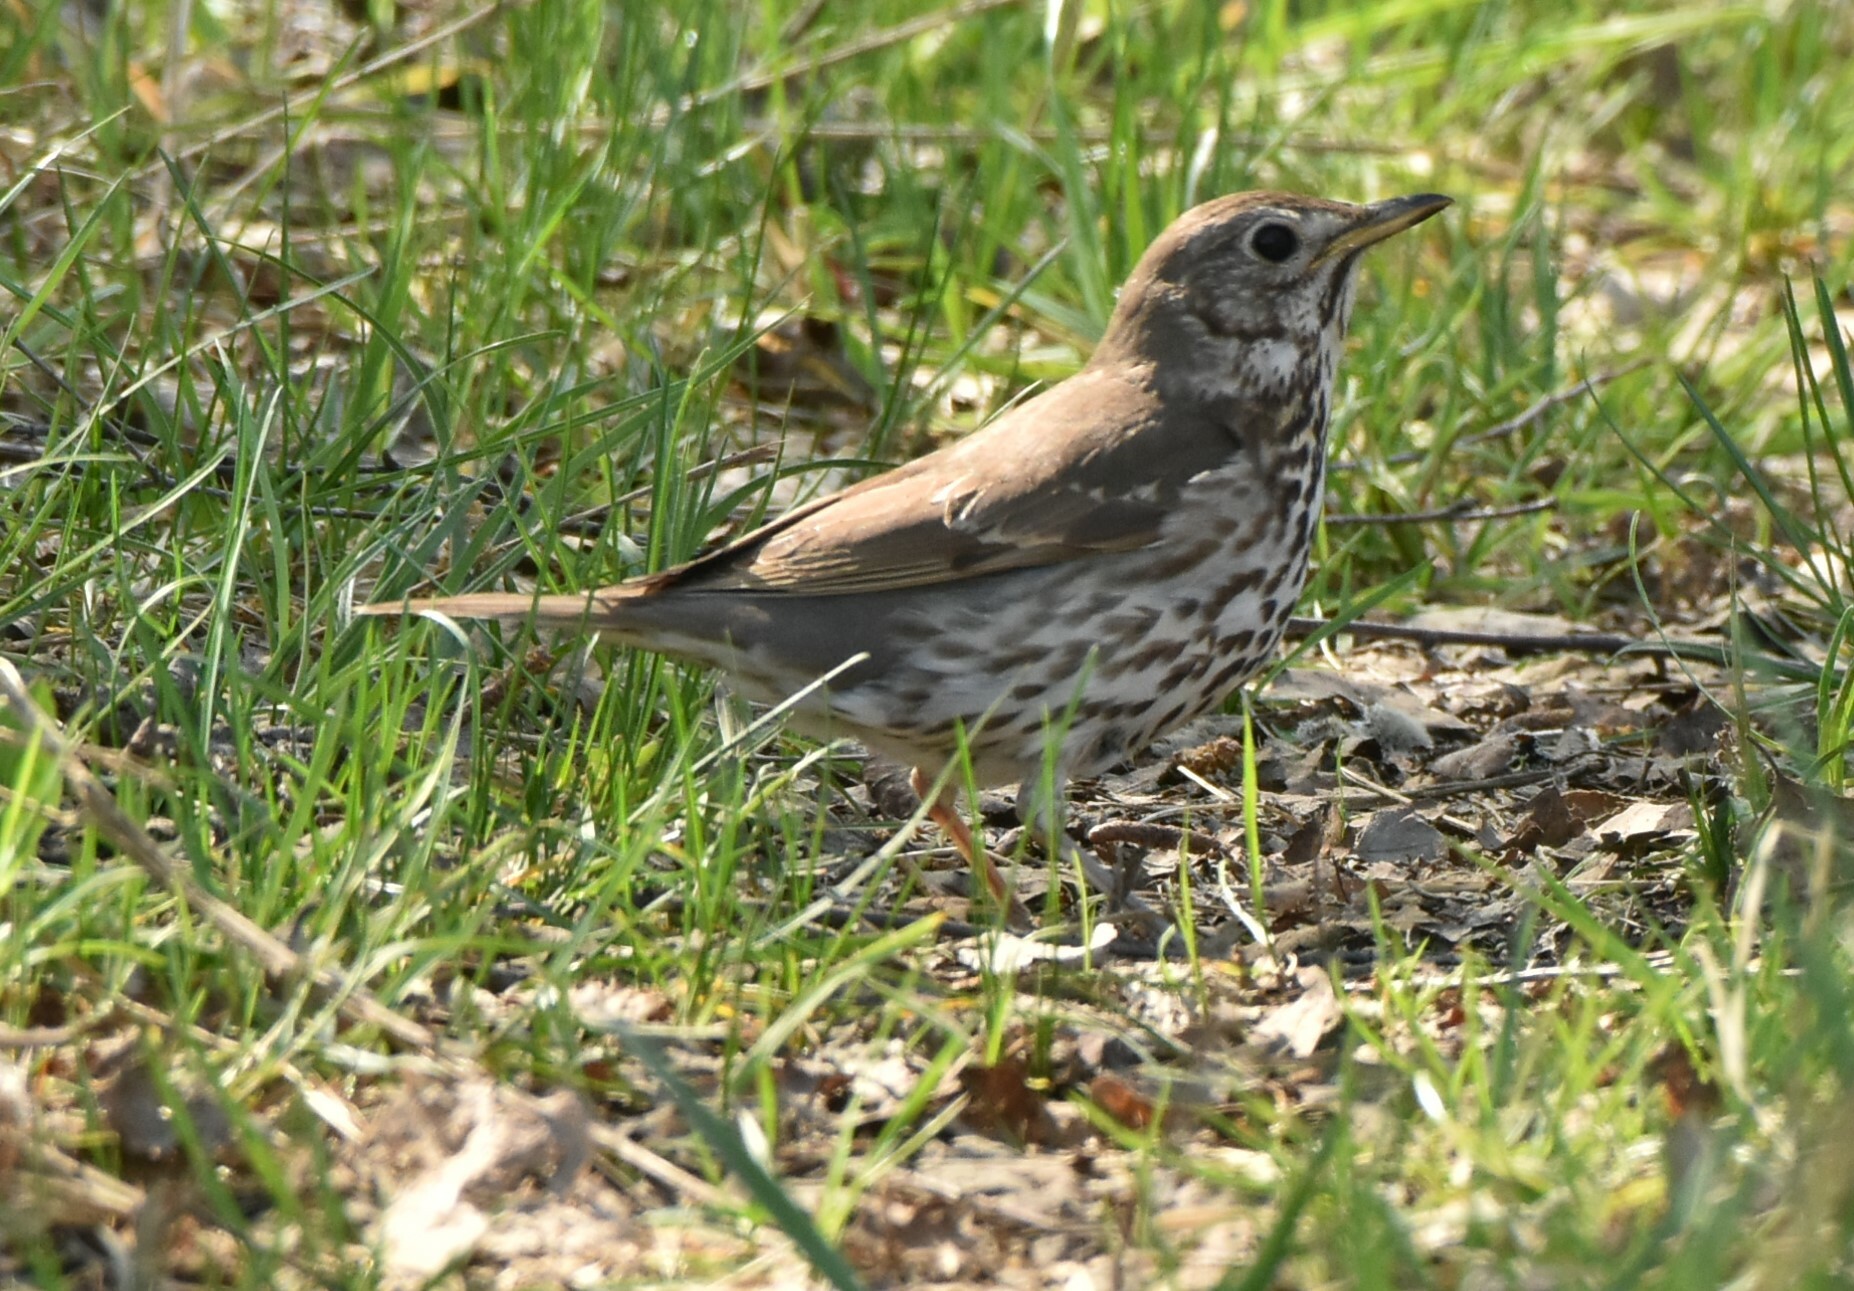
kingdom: Animalia
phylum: Chordata
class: Aves
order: Passeriformes
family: Turdidae
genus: Turdus
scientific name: Turdus philomelos
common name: Song thrush
